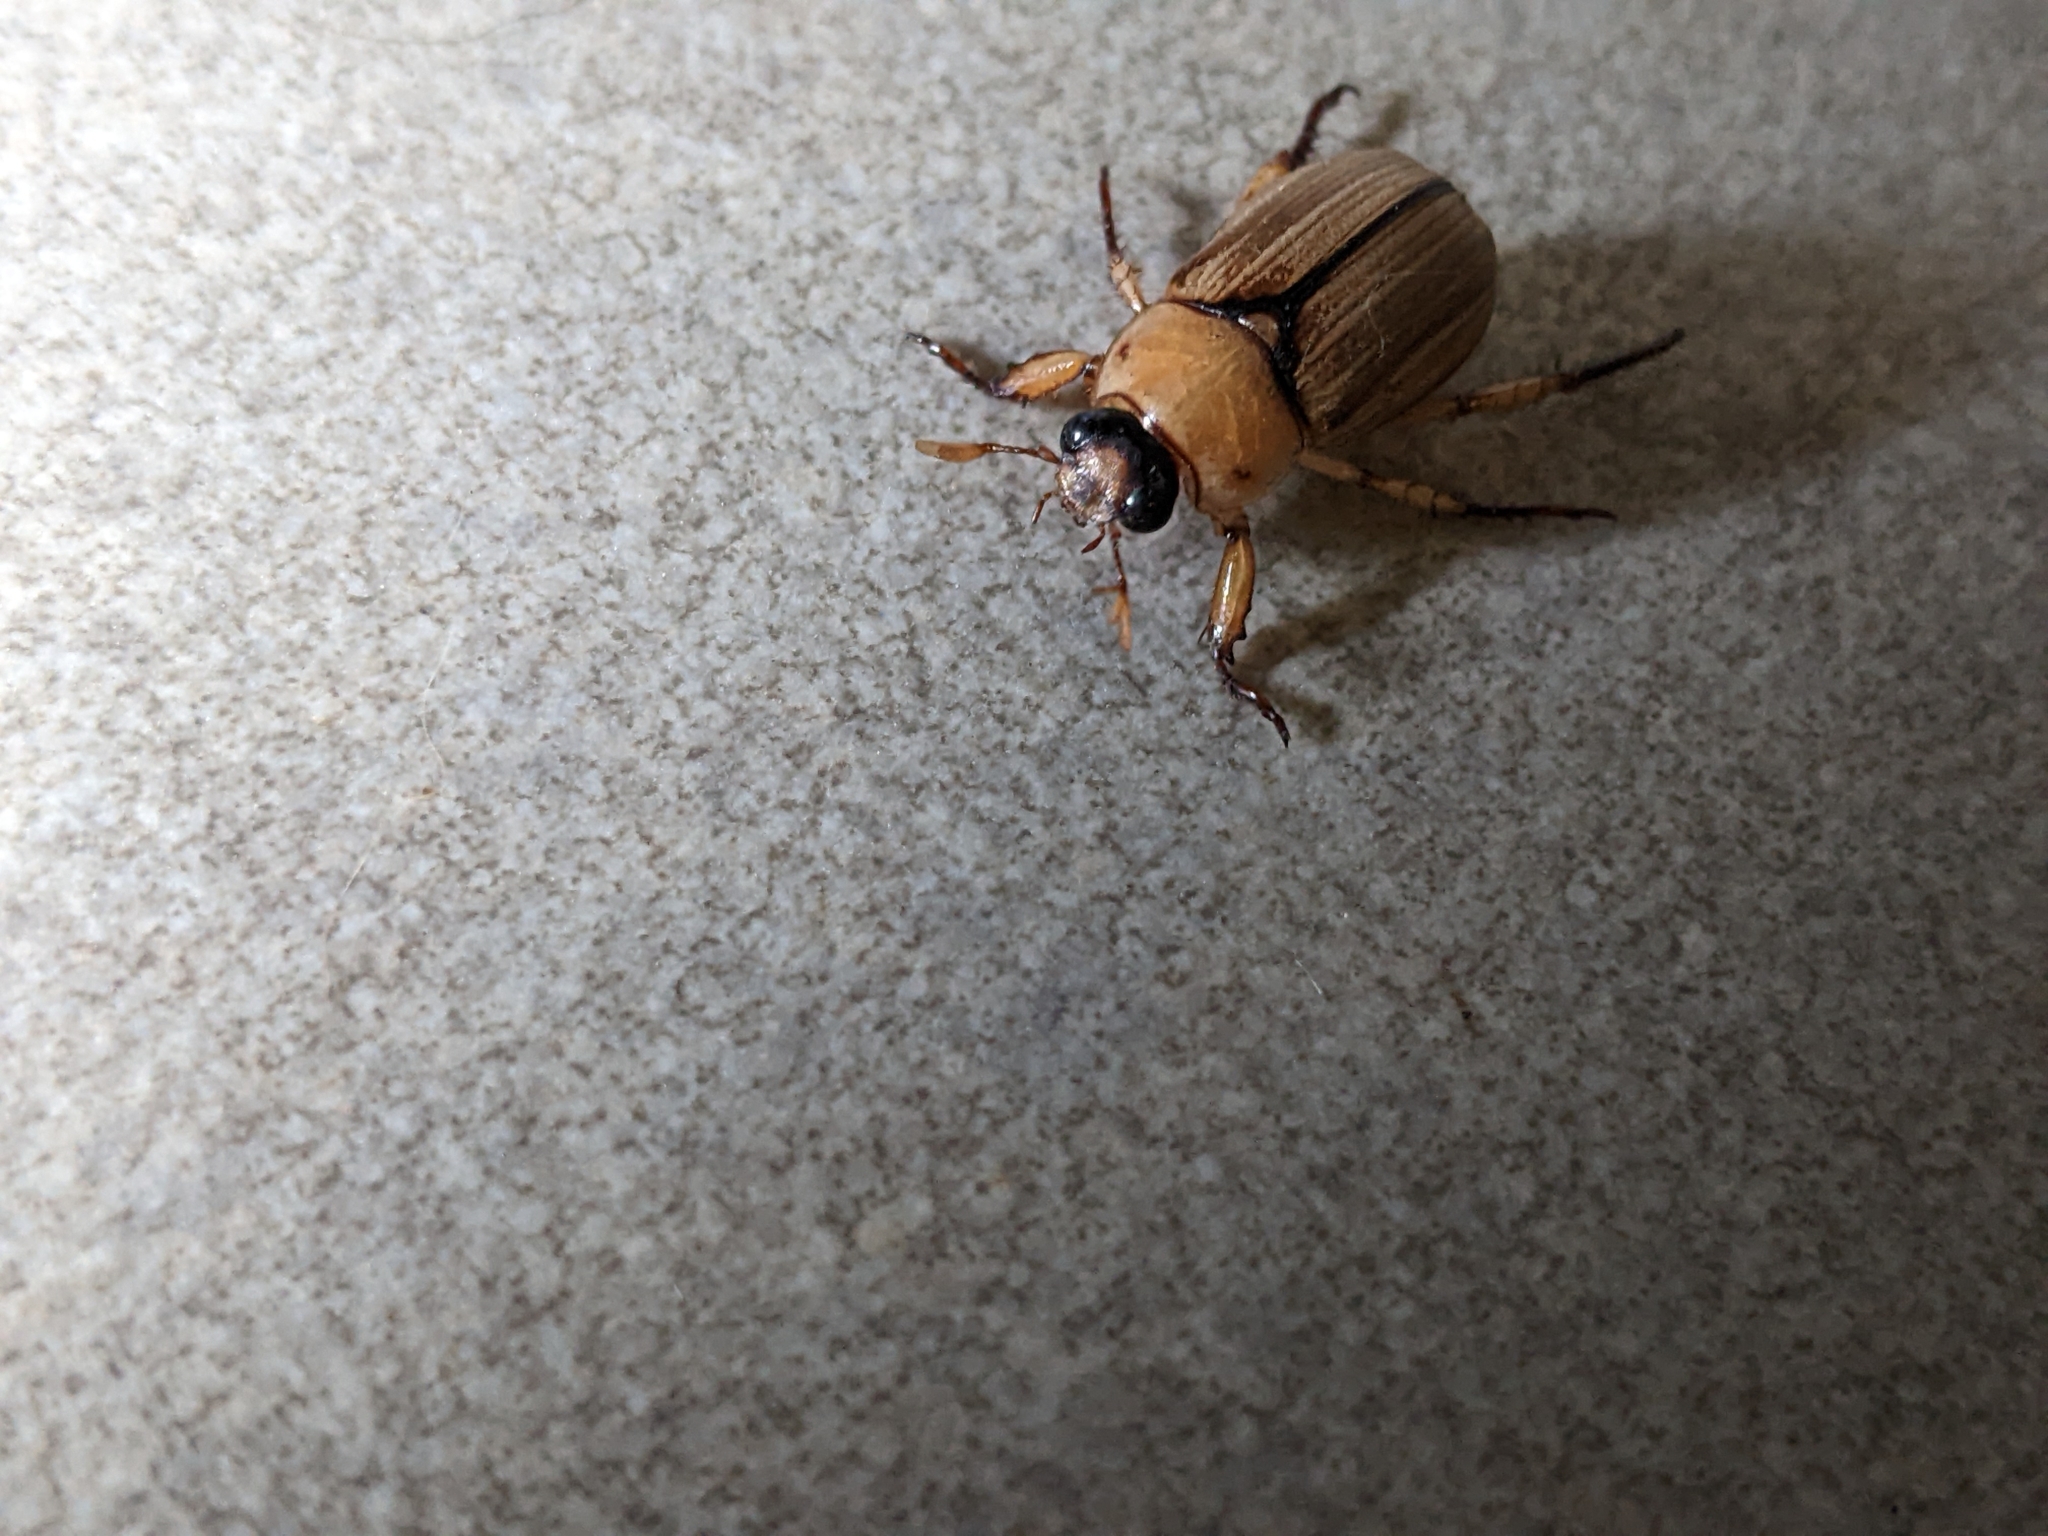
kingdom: Animalia
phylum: Arthropoda
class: Insecta
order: Coleoptera
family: Scarabaeidae
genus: Anomala
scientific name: Anomala pallida
